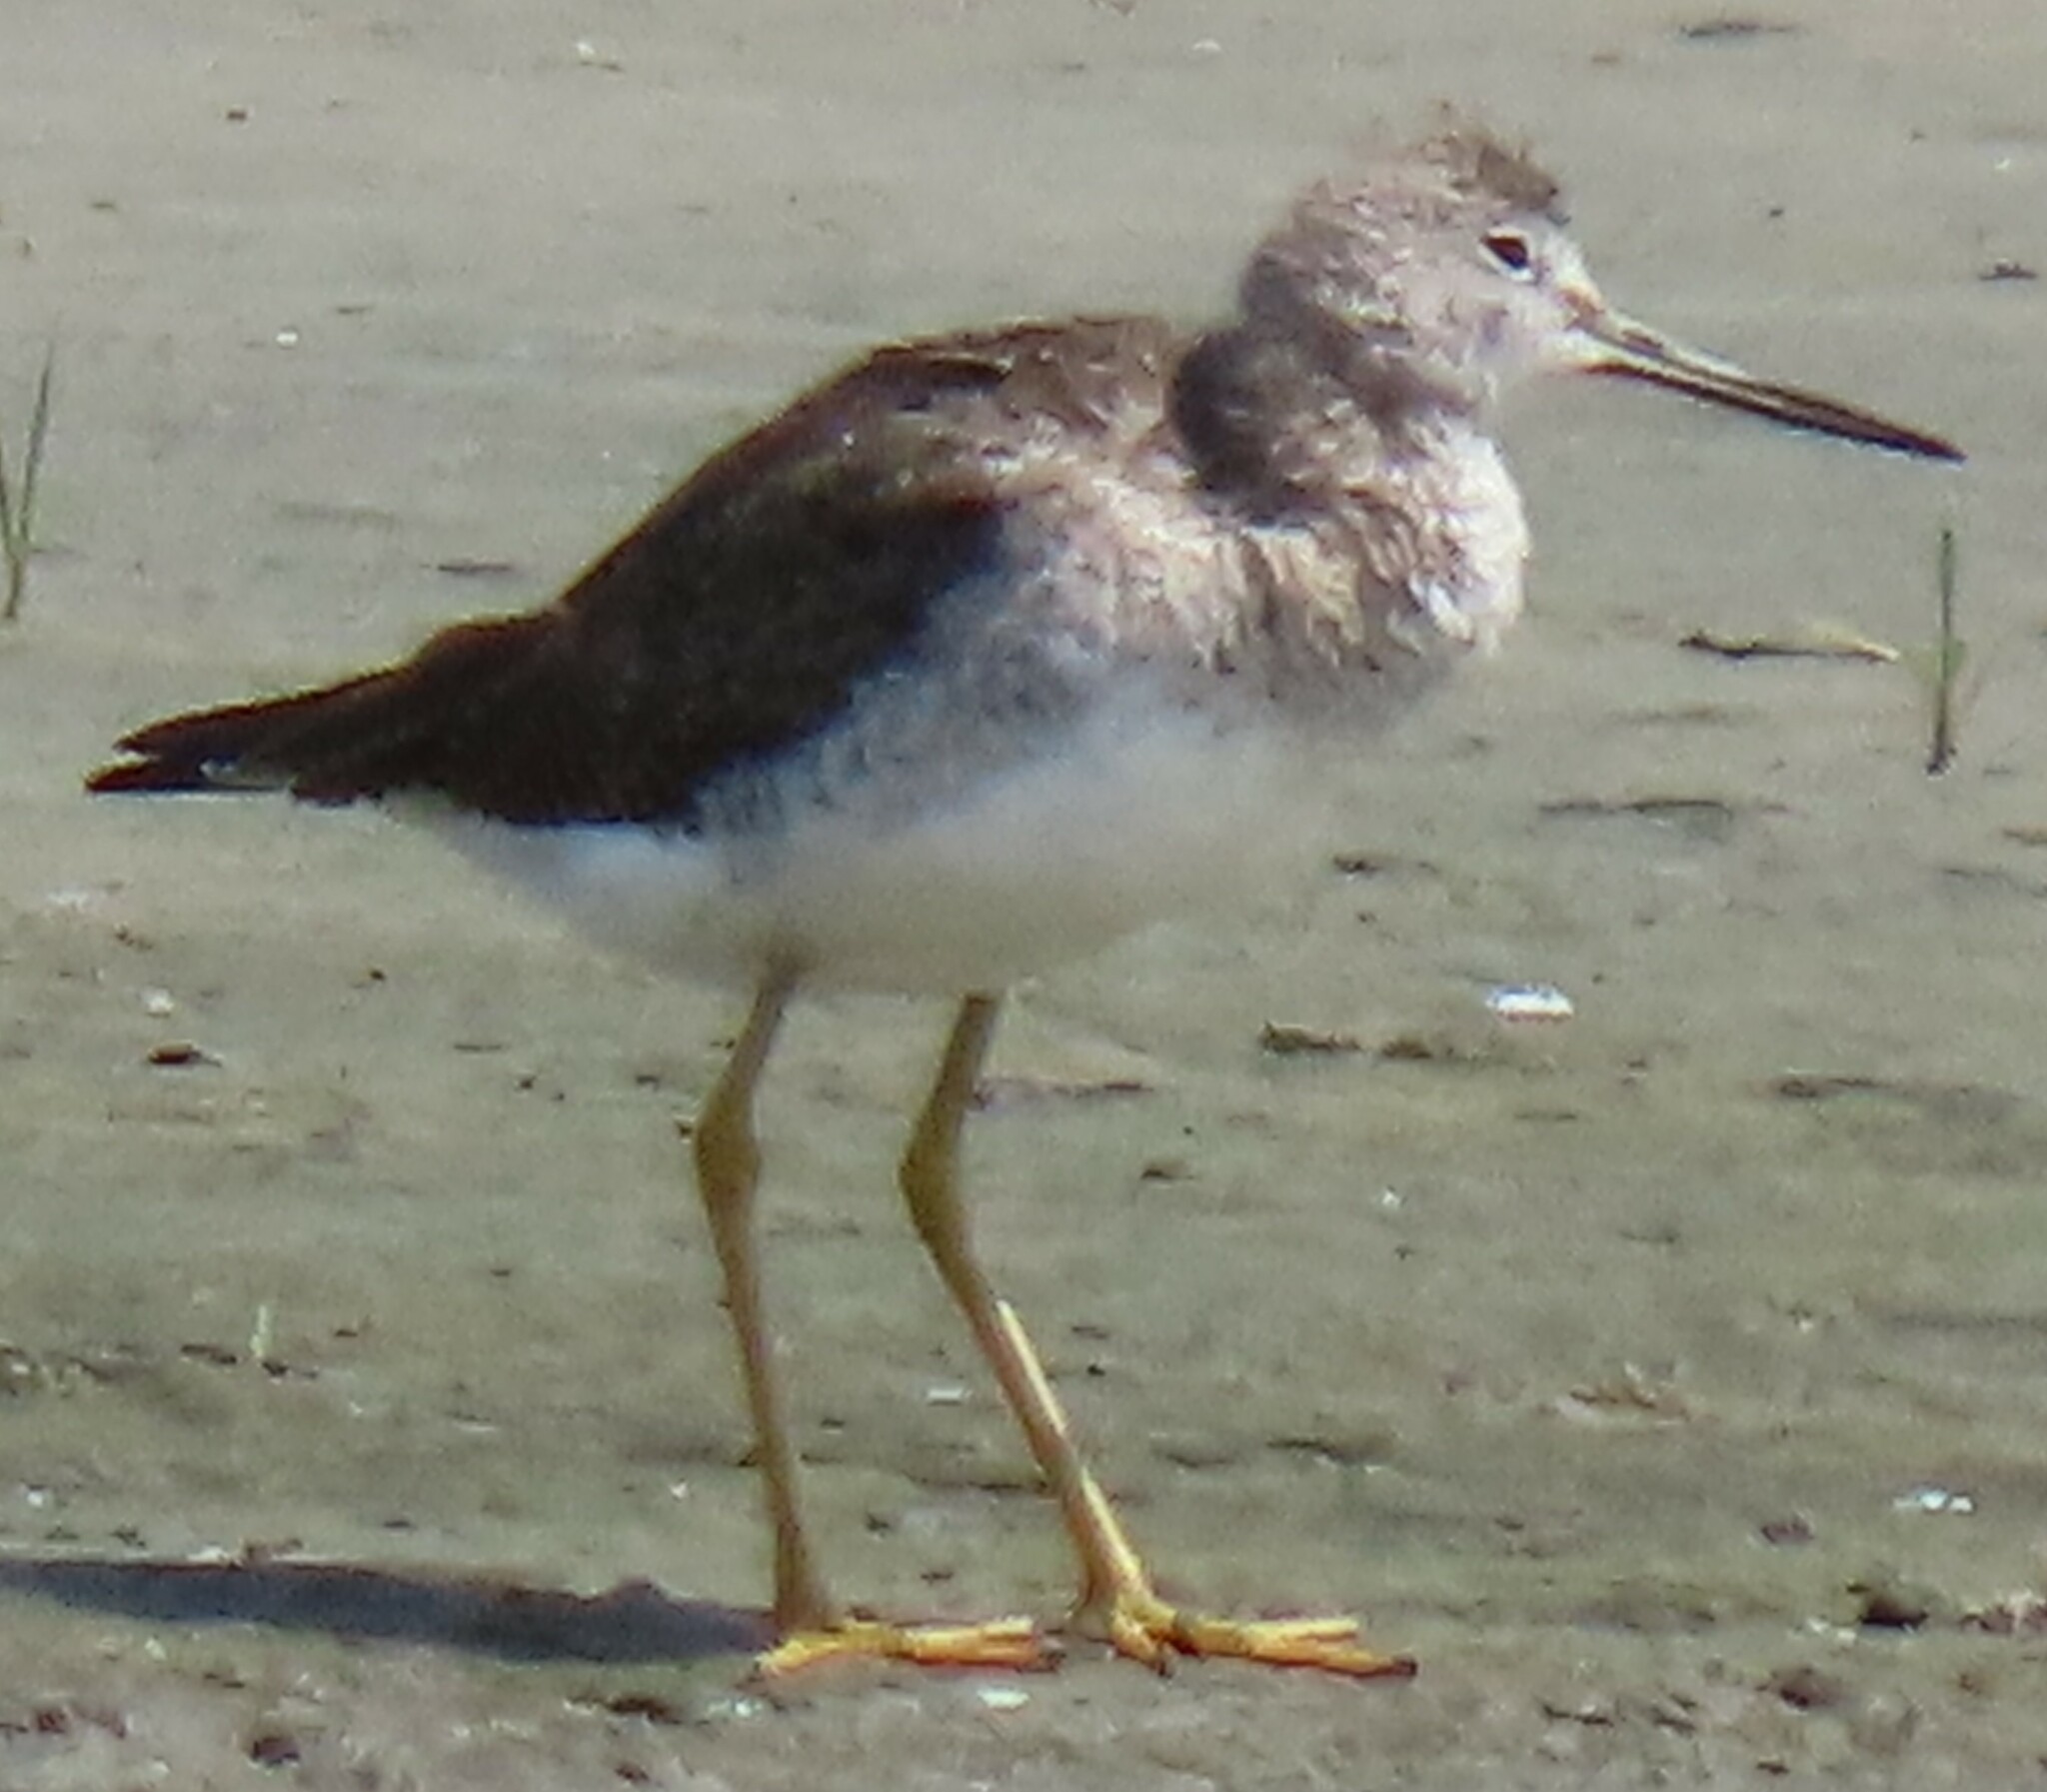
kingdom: Animalia
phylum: Chordata
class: Aves
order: Charadriiformes
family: Scolopacidae
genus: Tringa
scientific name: Tringa melanoleuca
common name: Greater yellowlegs
